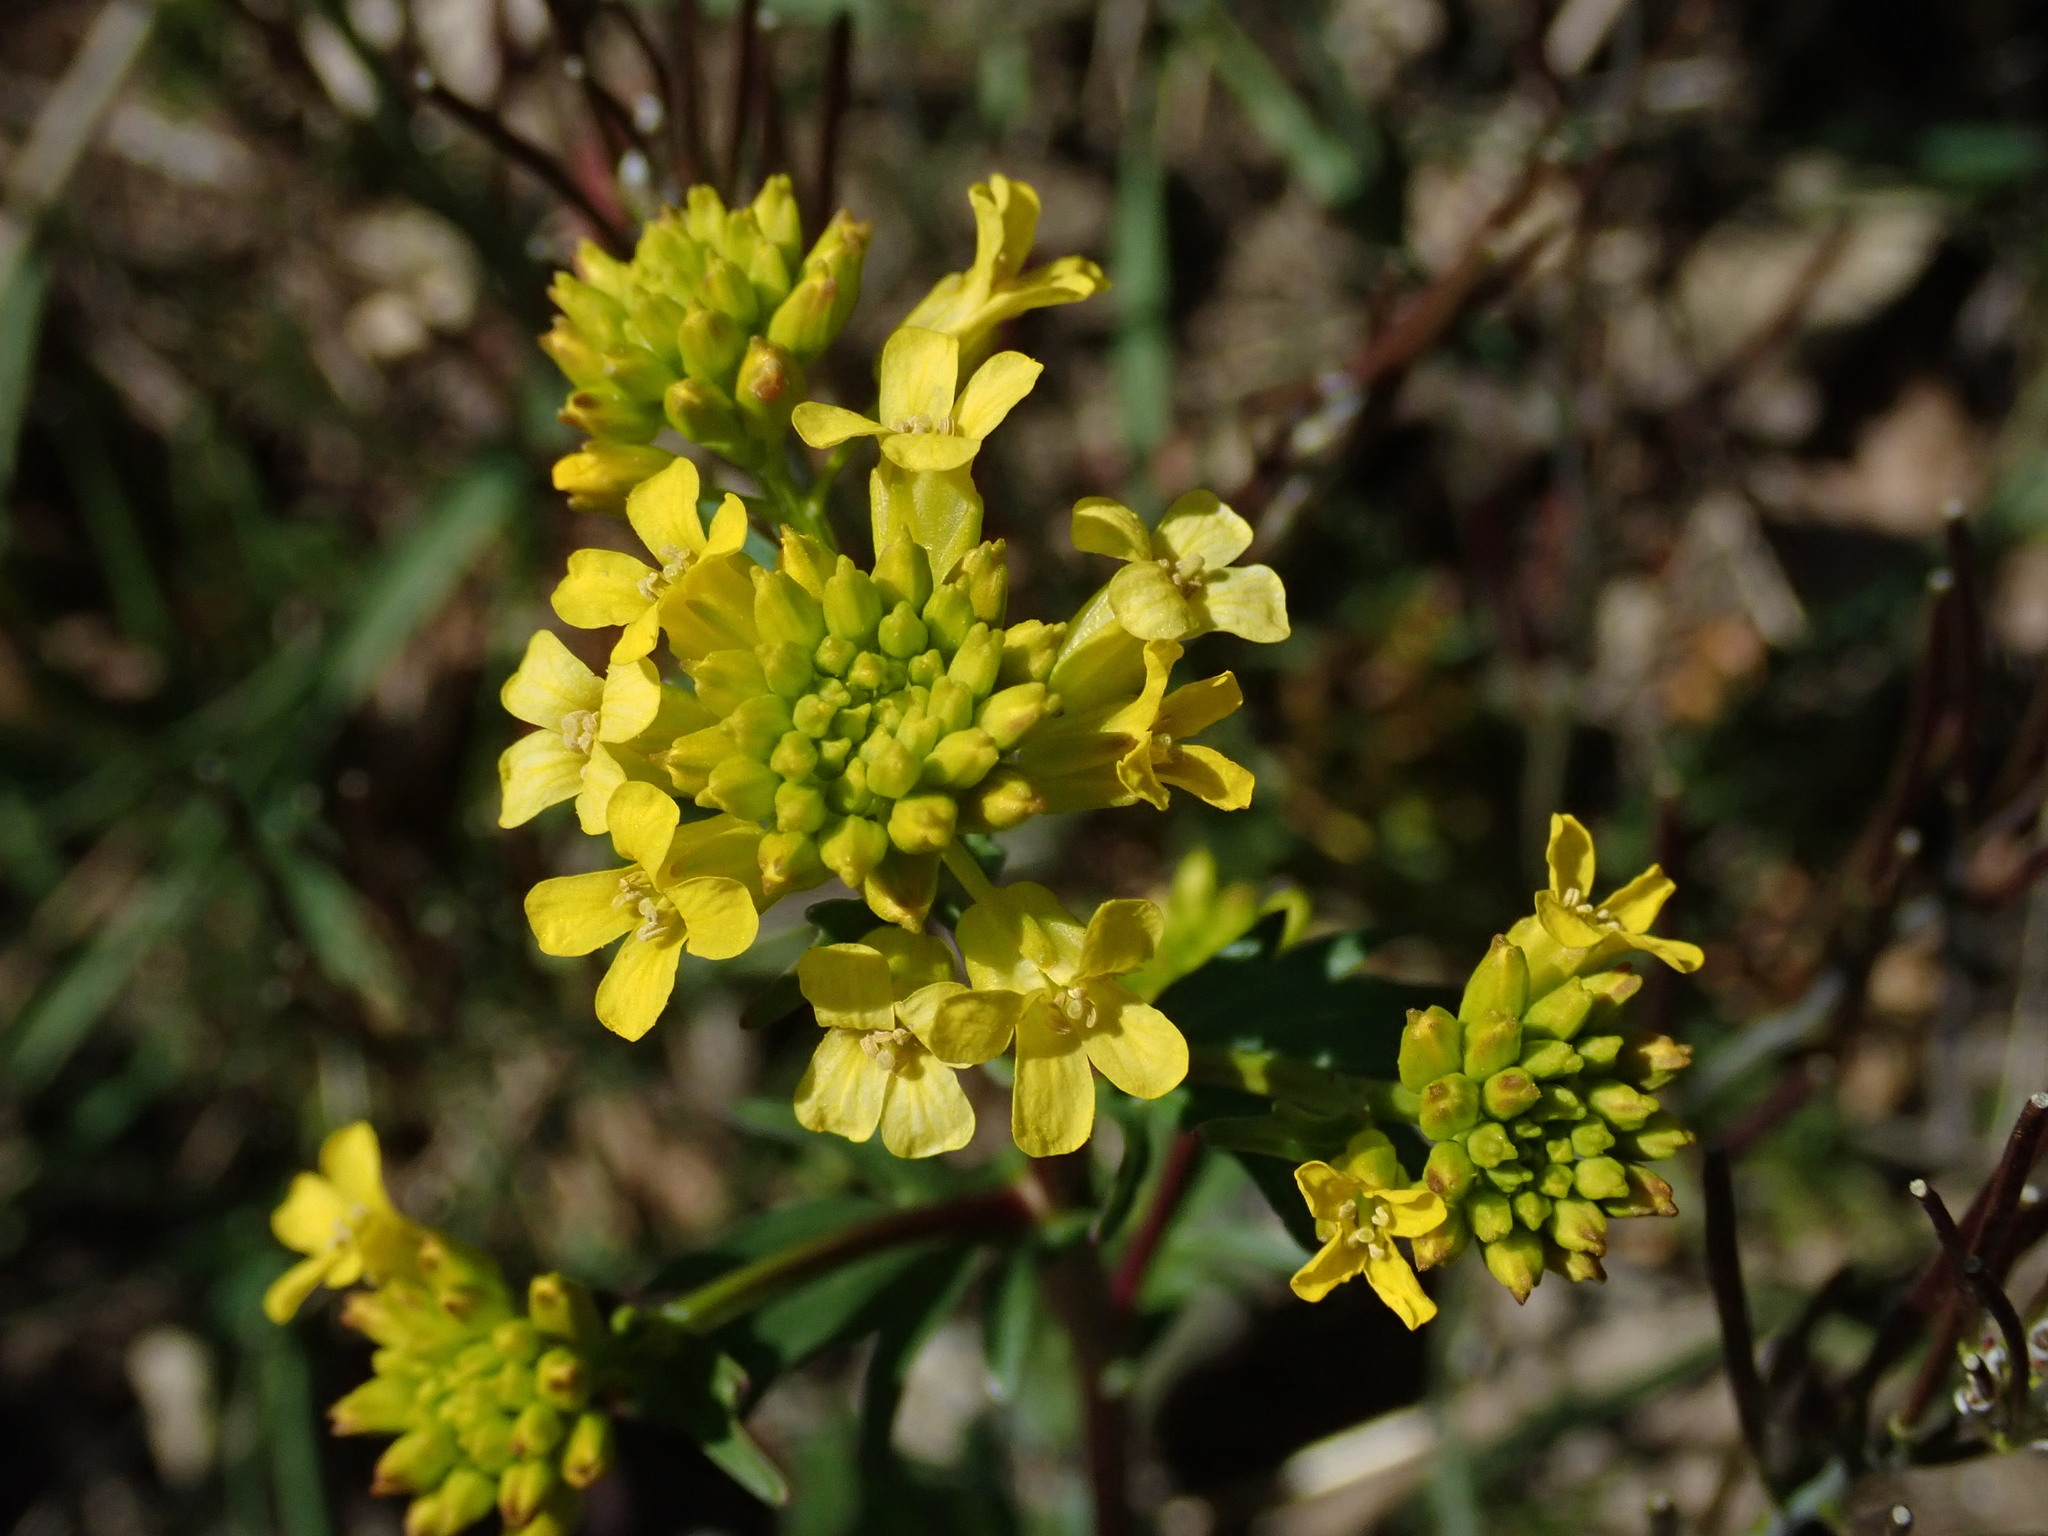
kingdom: Plantae
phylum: Tracheophyta
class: Magnoliopsida
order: Brassicales
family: Brassicaceae
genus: Barbarea
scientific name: Barbarea vulgaris
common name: Cressy-greens
